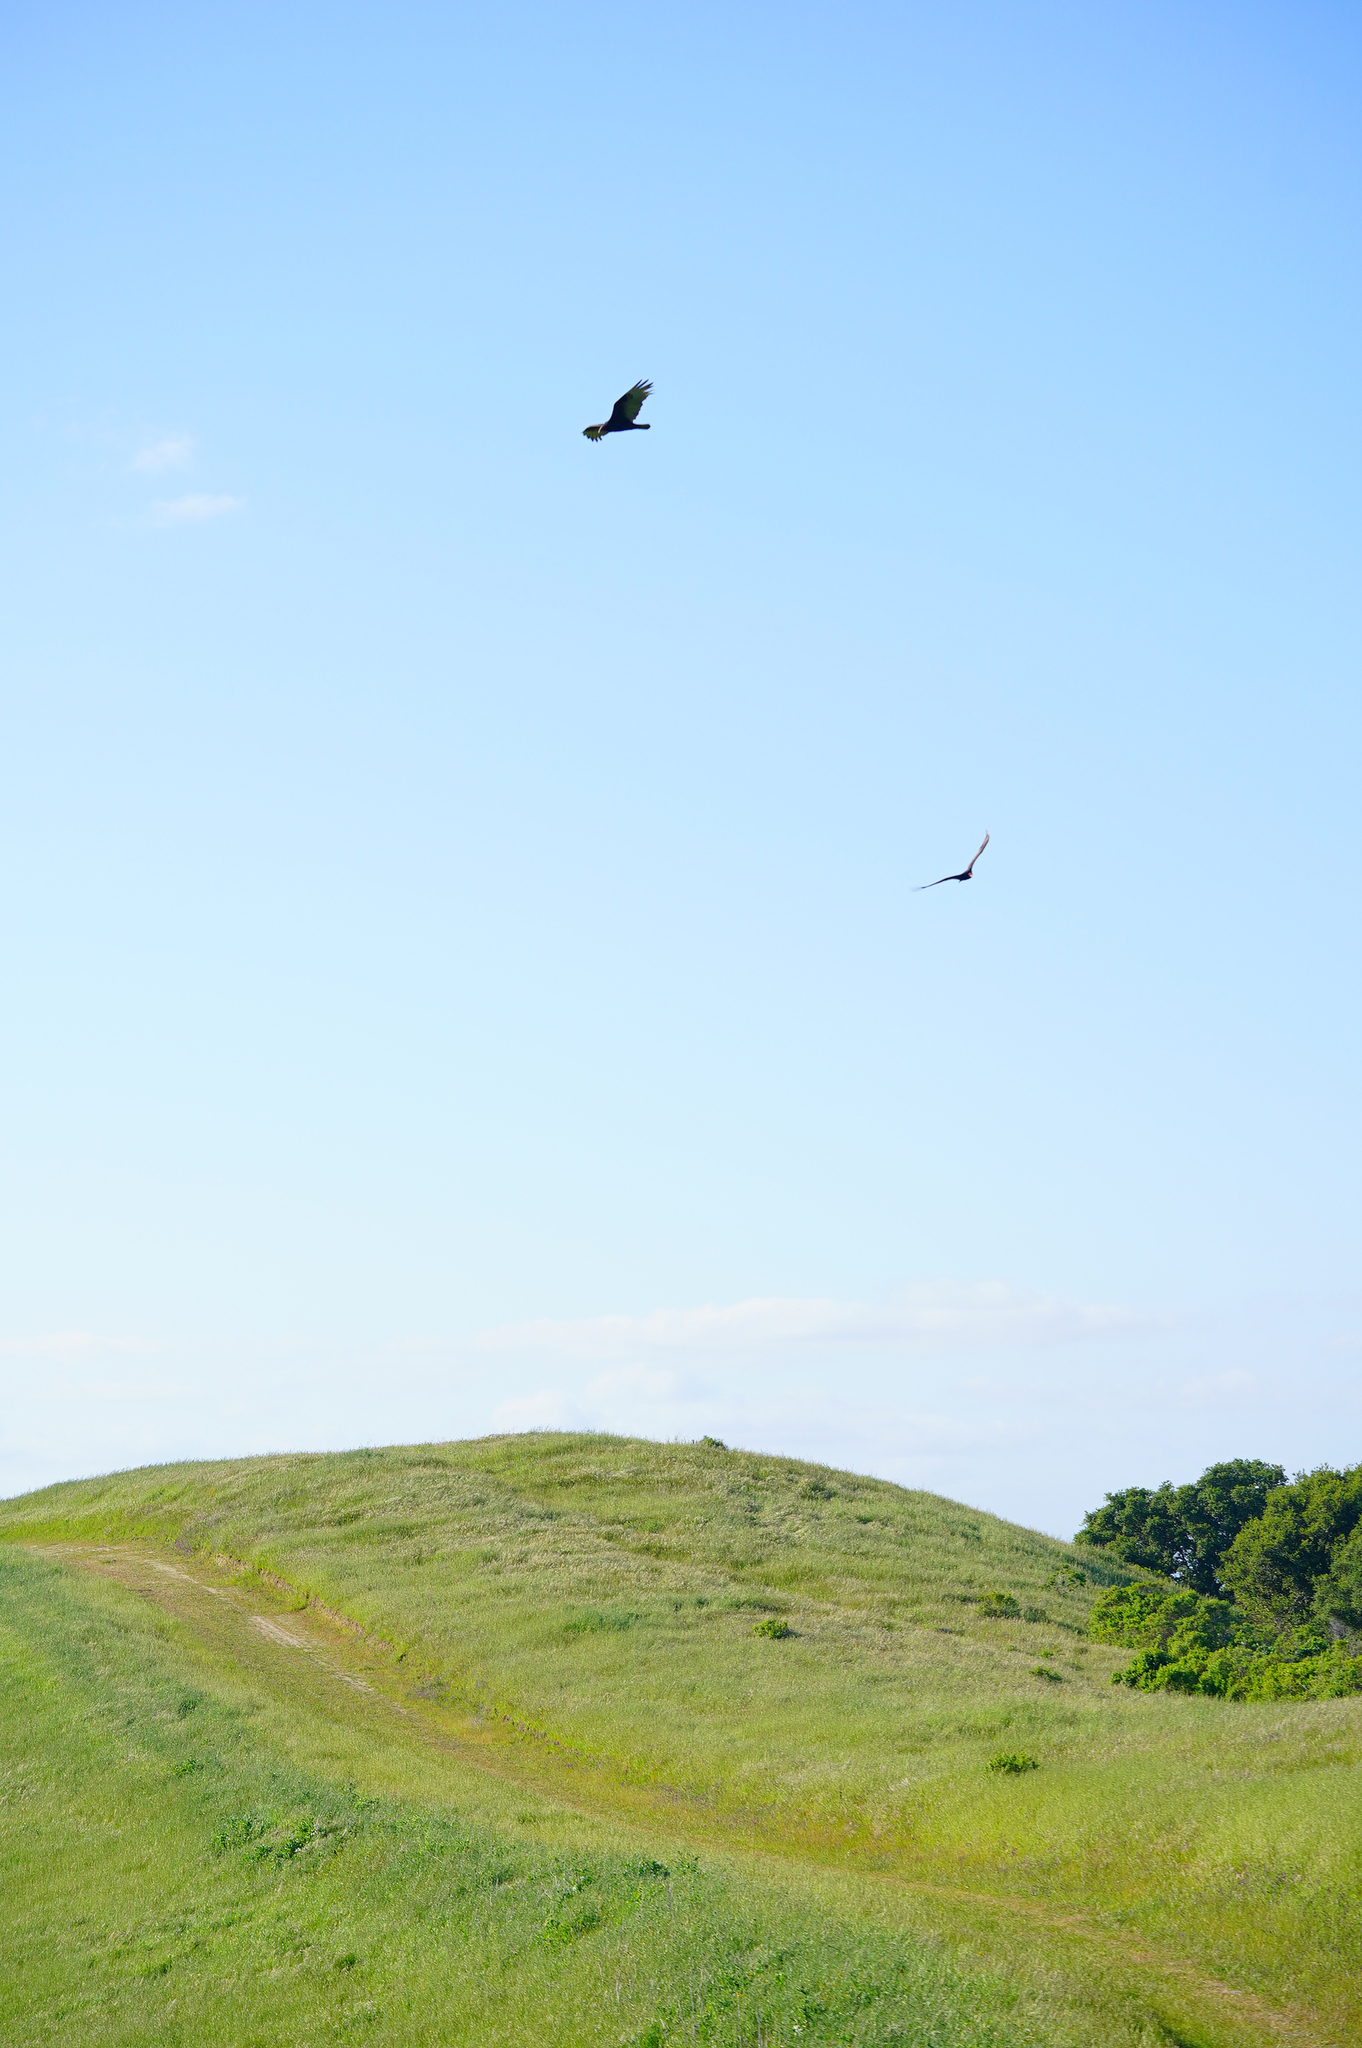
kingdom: Animalia
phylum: Chordata
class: Aves
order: Accipitriformes
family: Cathartidae
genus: Cathartes
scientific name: Cathartes aura
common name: Turkey vulture
